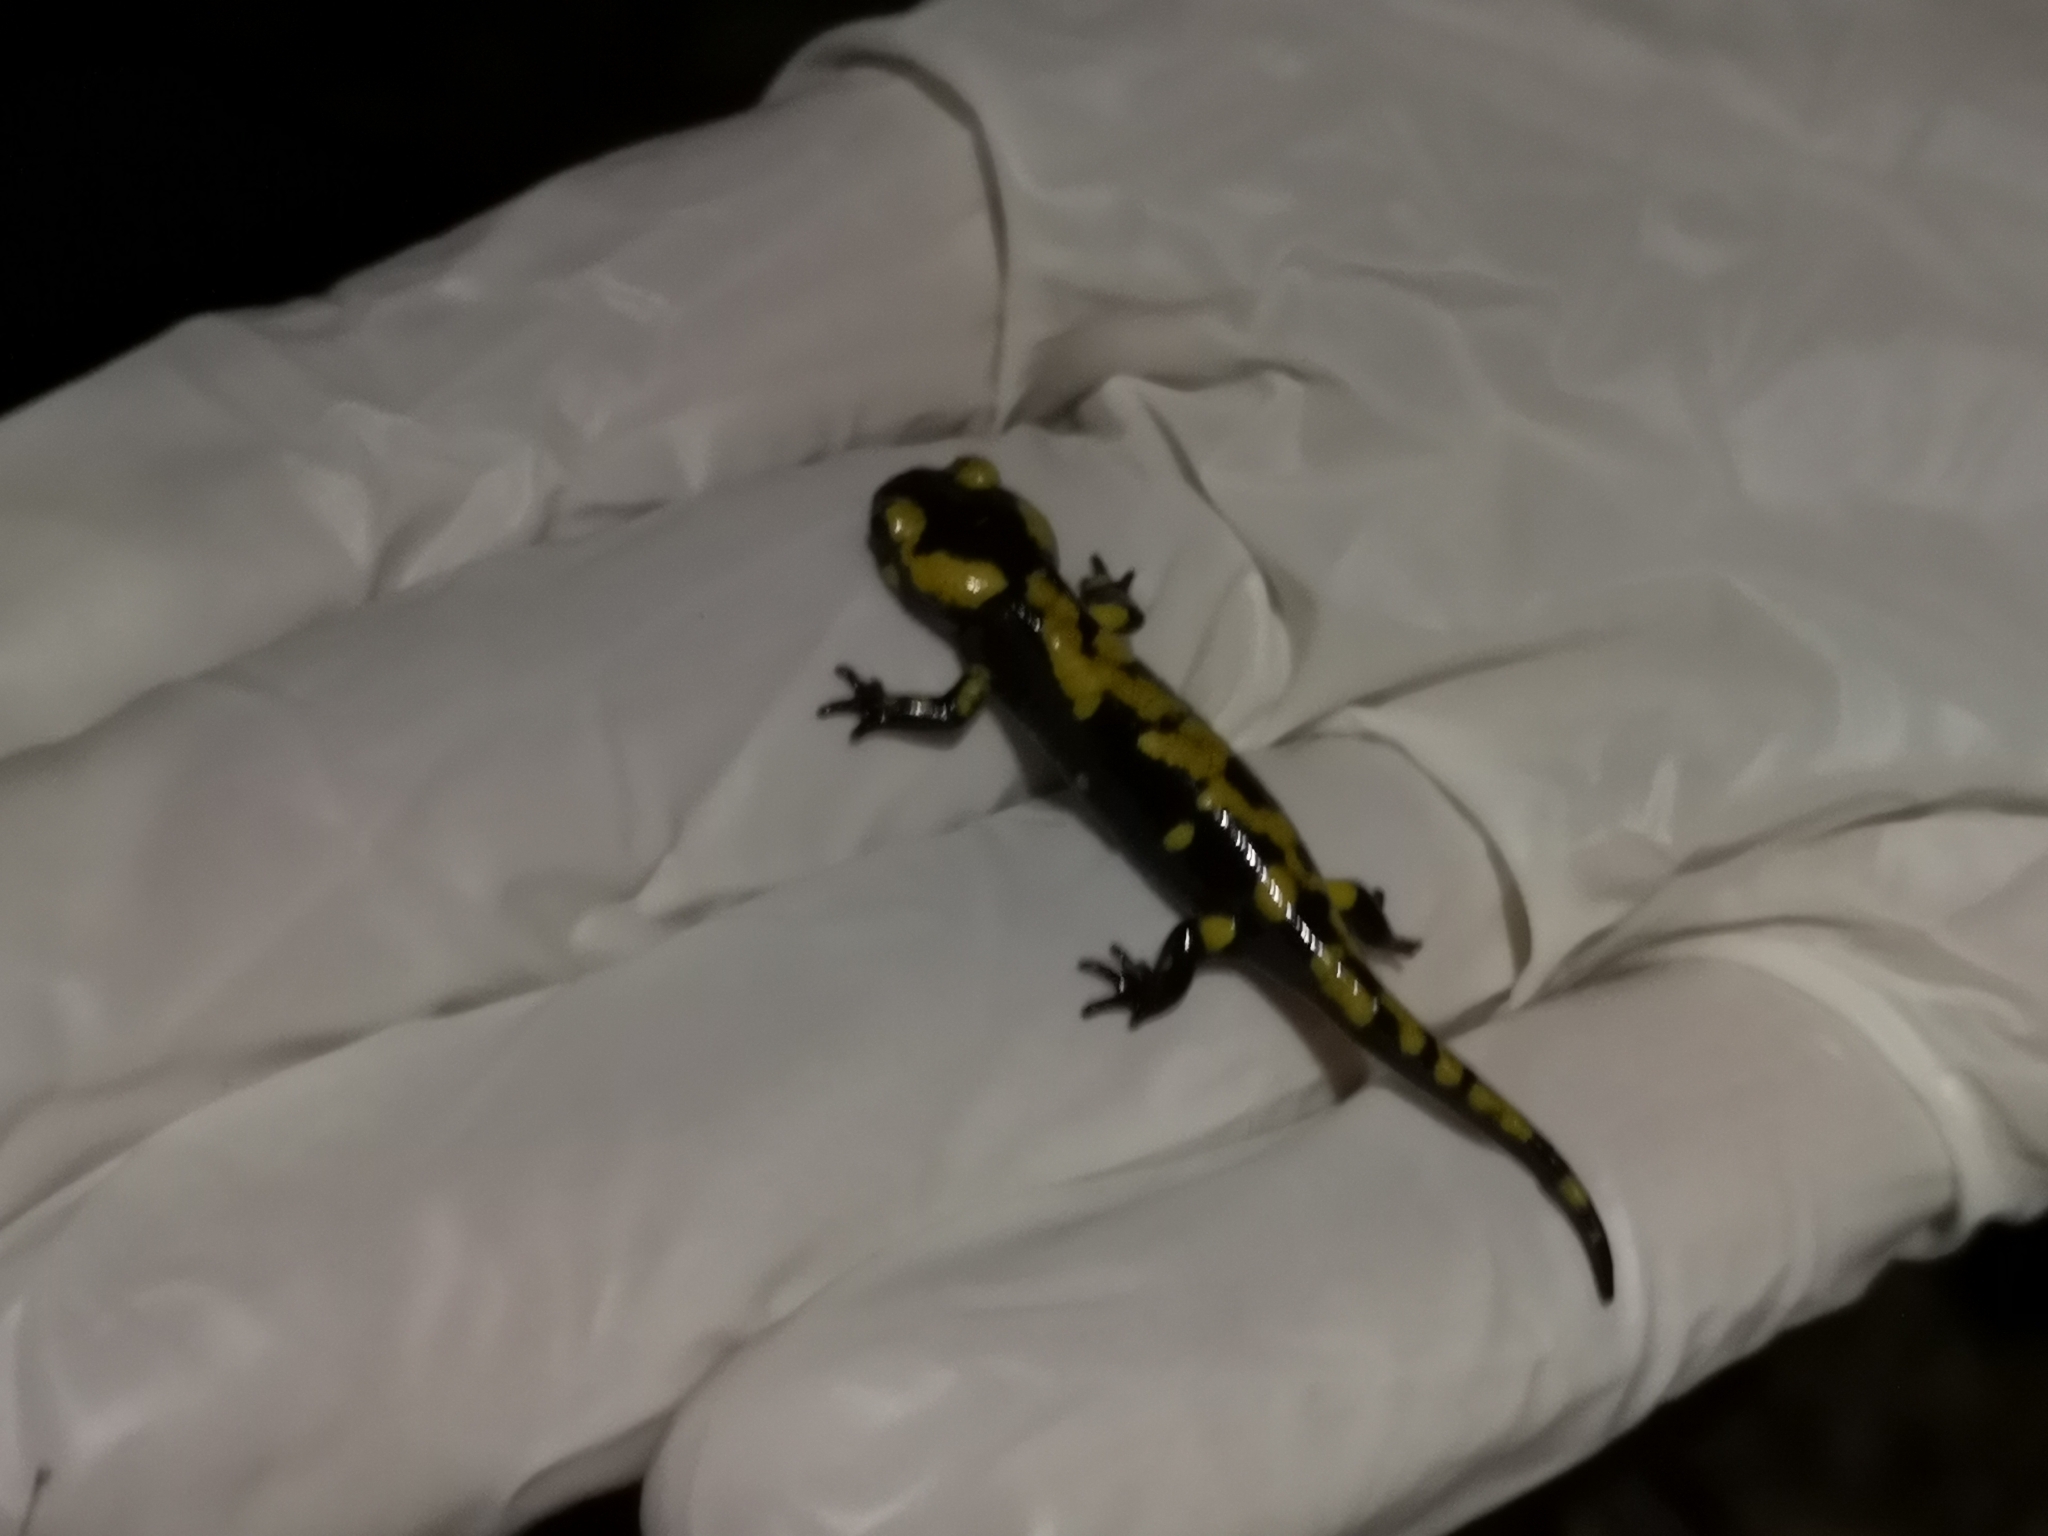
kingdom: Animalia
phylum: Chordata
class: Amphibia
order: Caudata
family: Salamandridae
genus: Salamandra
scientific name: Salamandra salamandra
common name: Fire salamander
